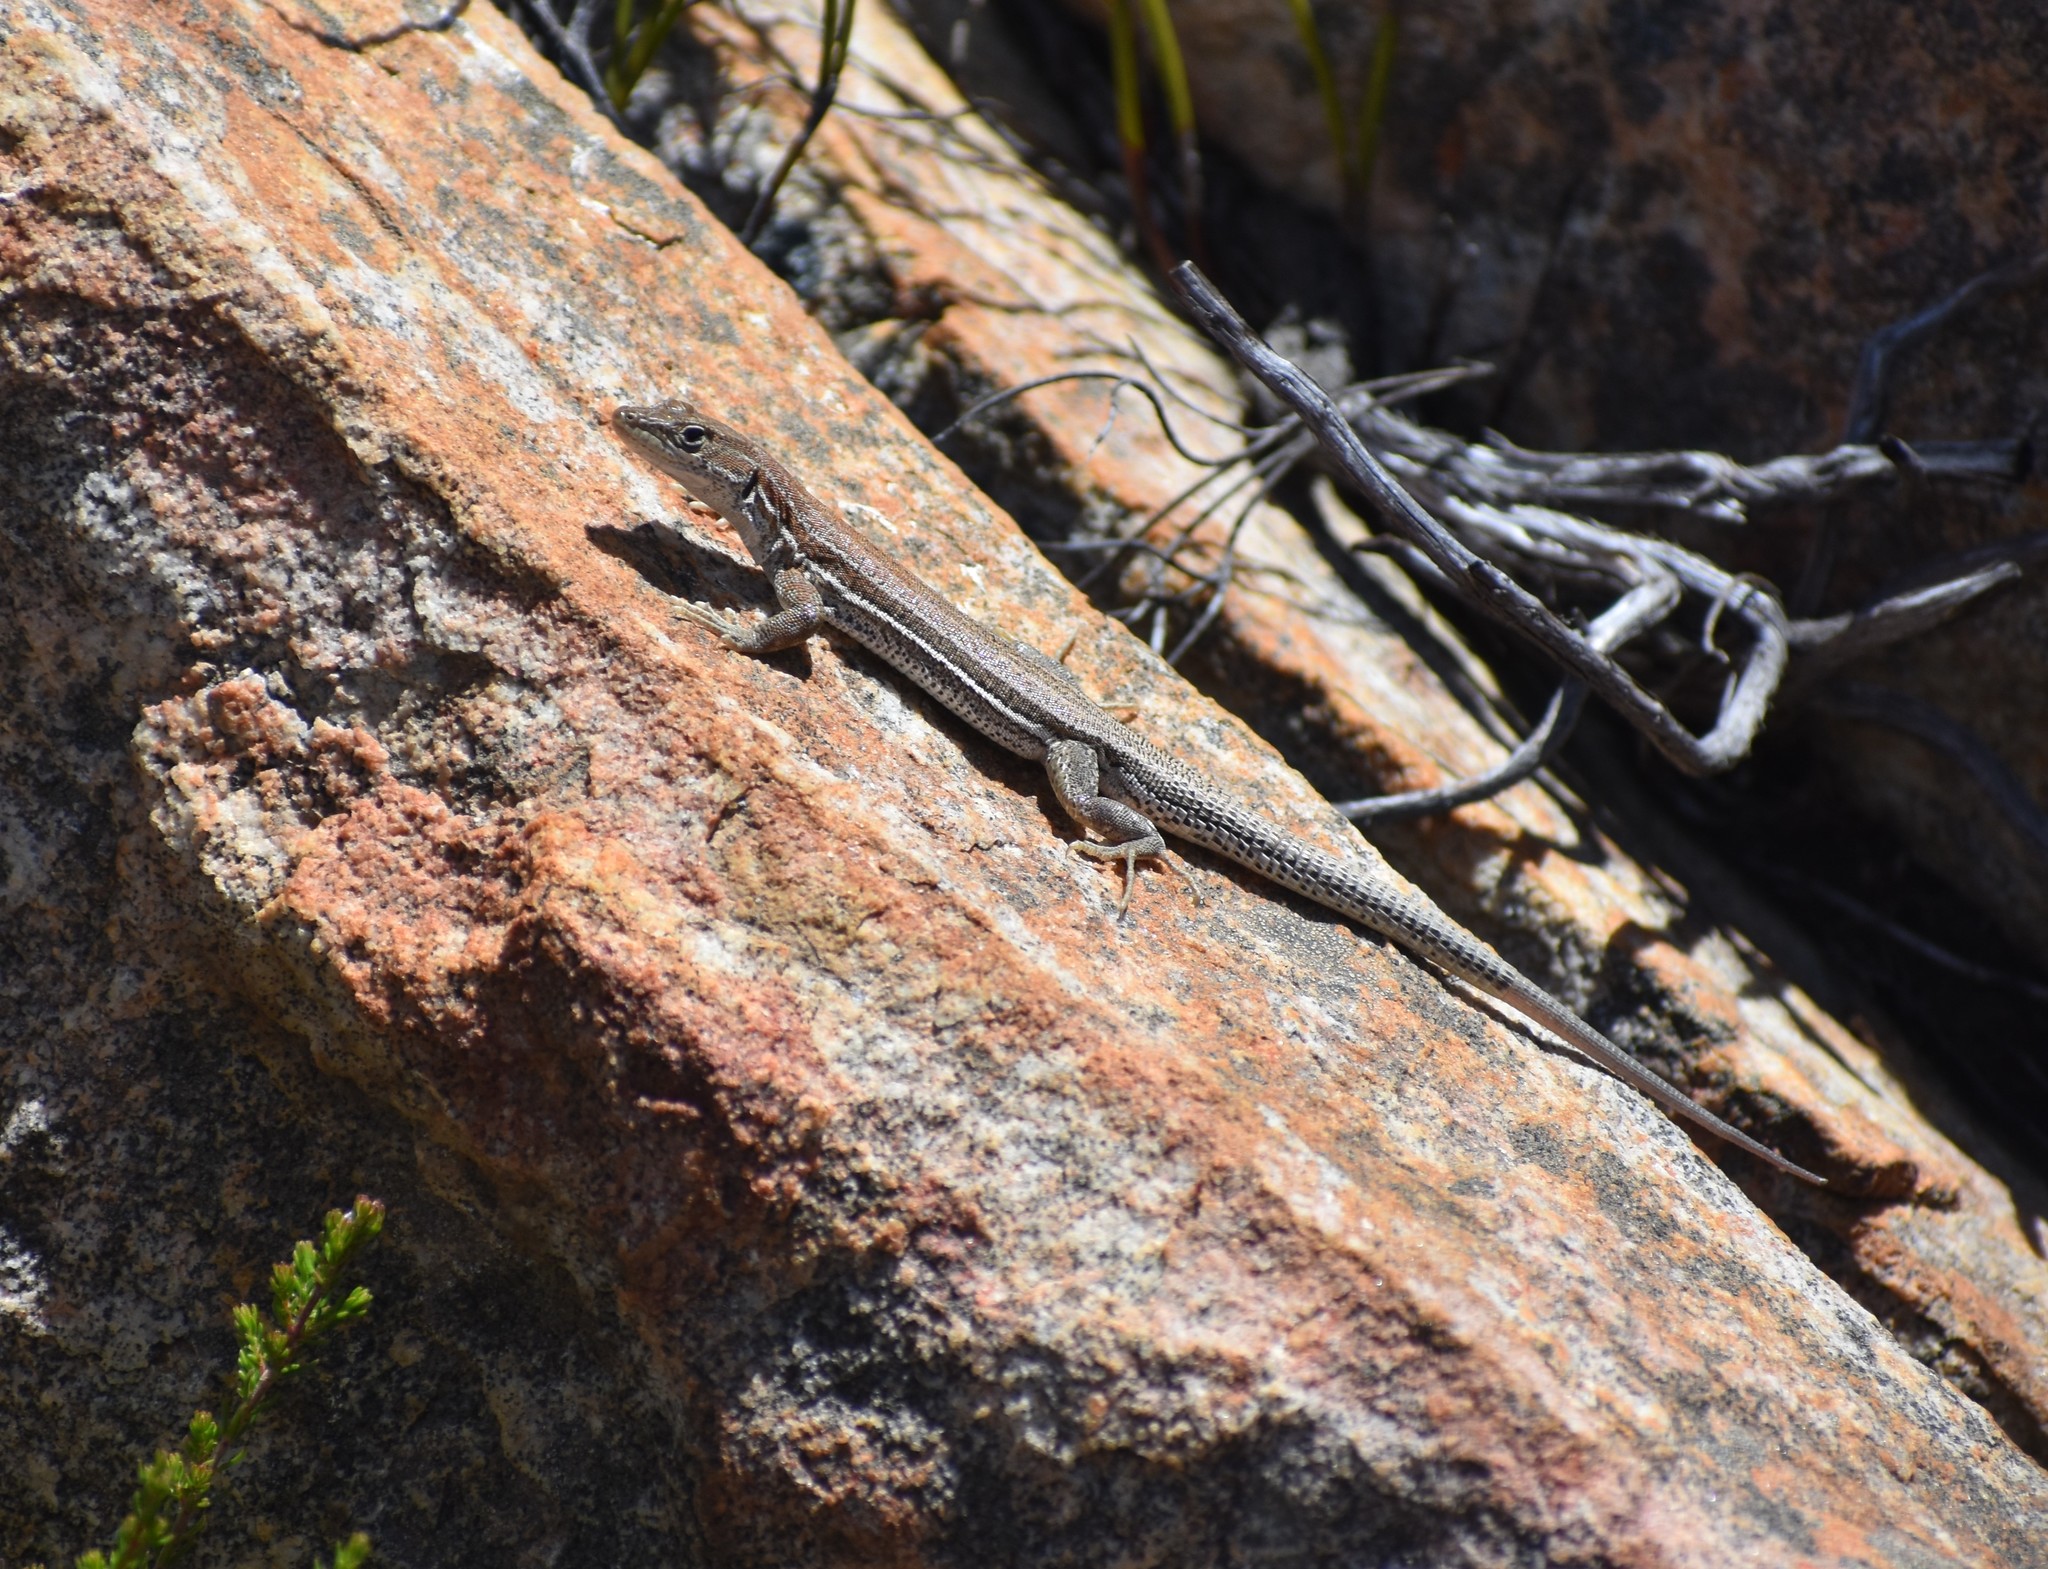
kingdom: Animalia
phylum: Chordata
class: Squamata
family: Lacertidae
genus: Pedioplanis
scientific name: Pedioplanis burchelli
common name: Burchell's sand lizard
